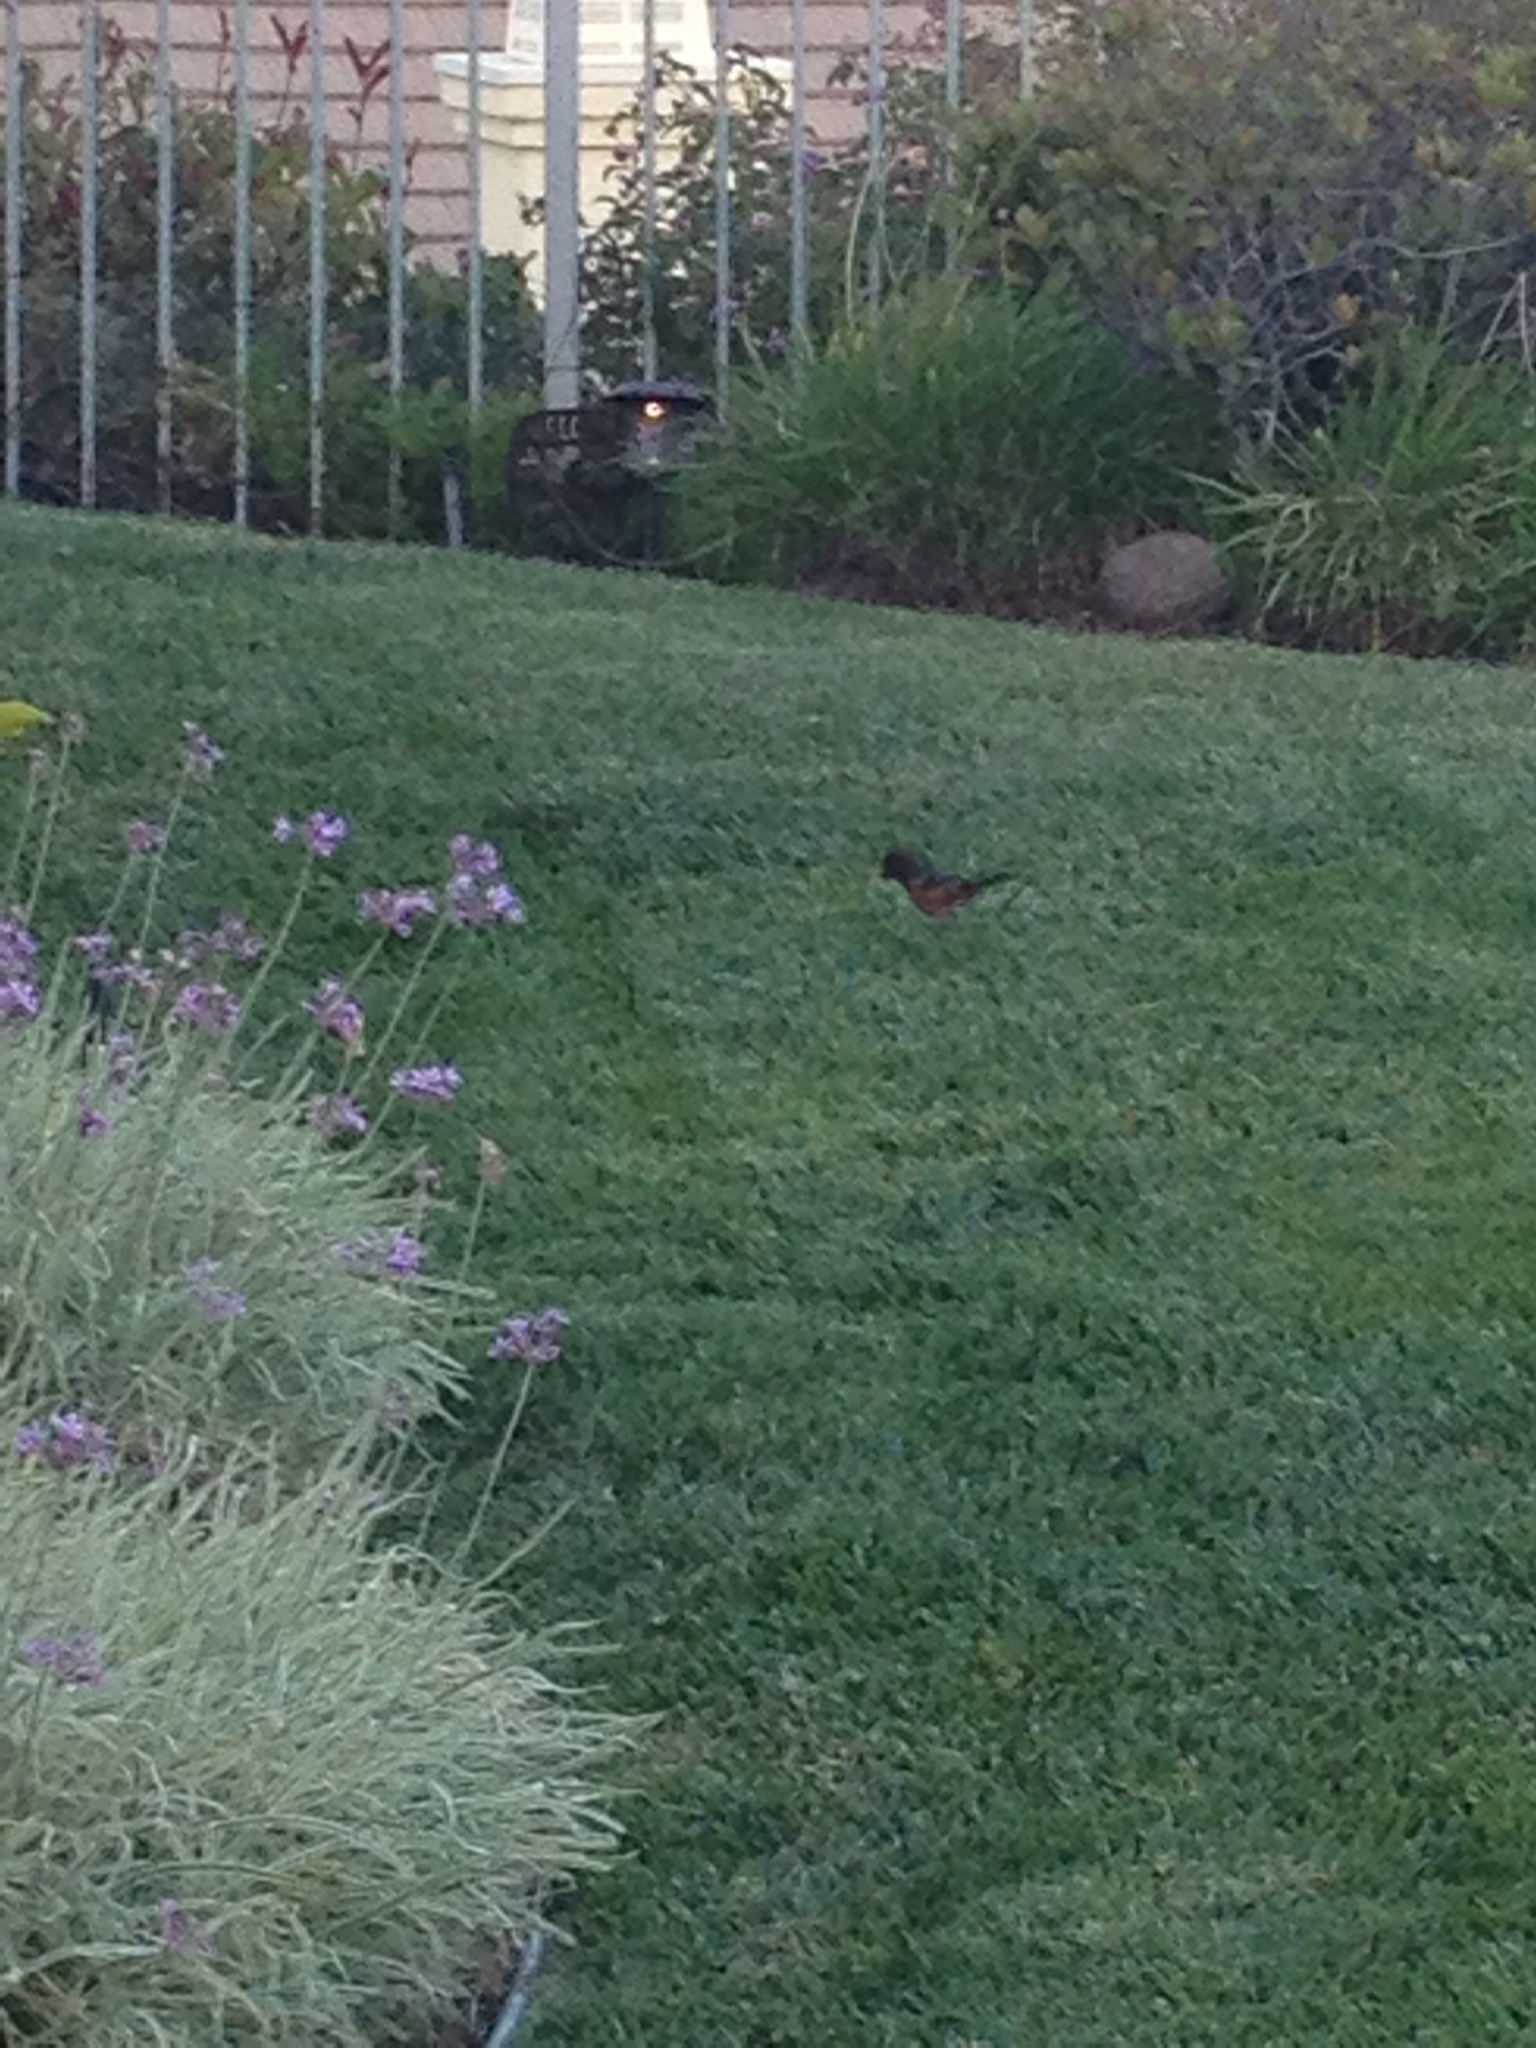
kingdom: Animalia
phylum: Chordata
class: Aves
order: Passeriformes
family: Passerellidae
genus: Pipilo
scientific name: Pipilo maculatus
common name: Spotted towhee
